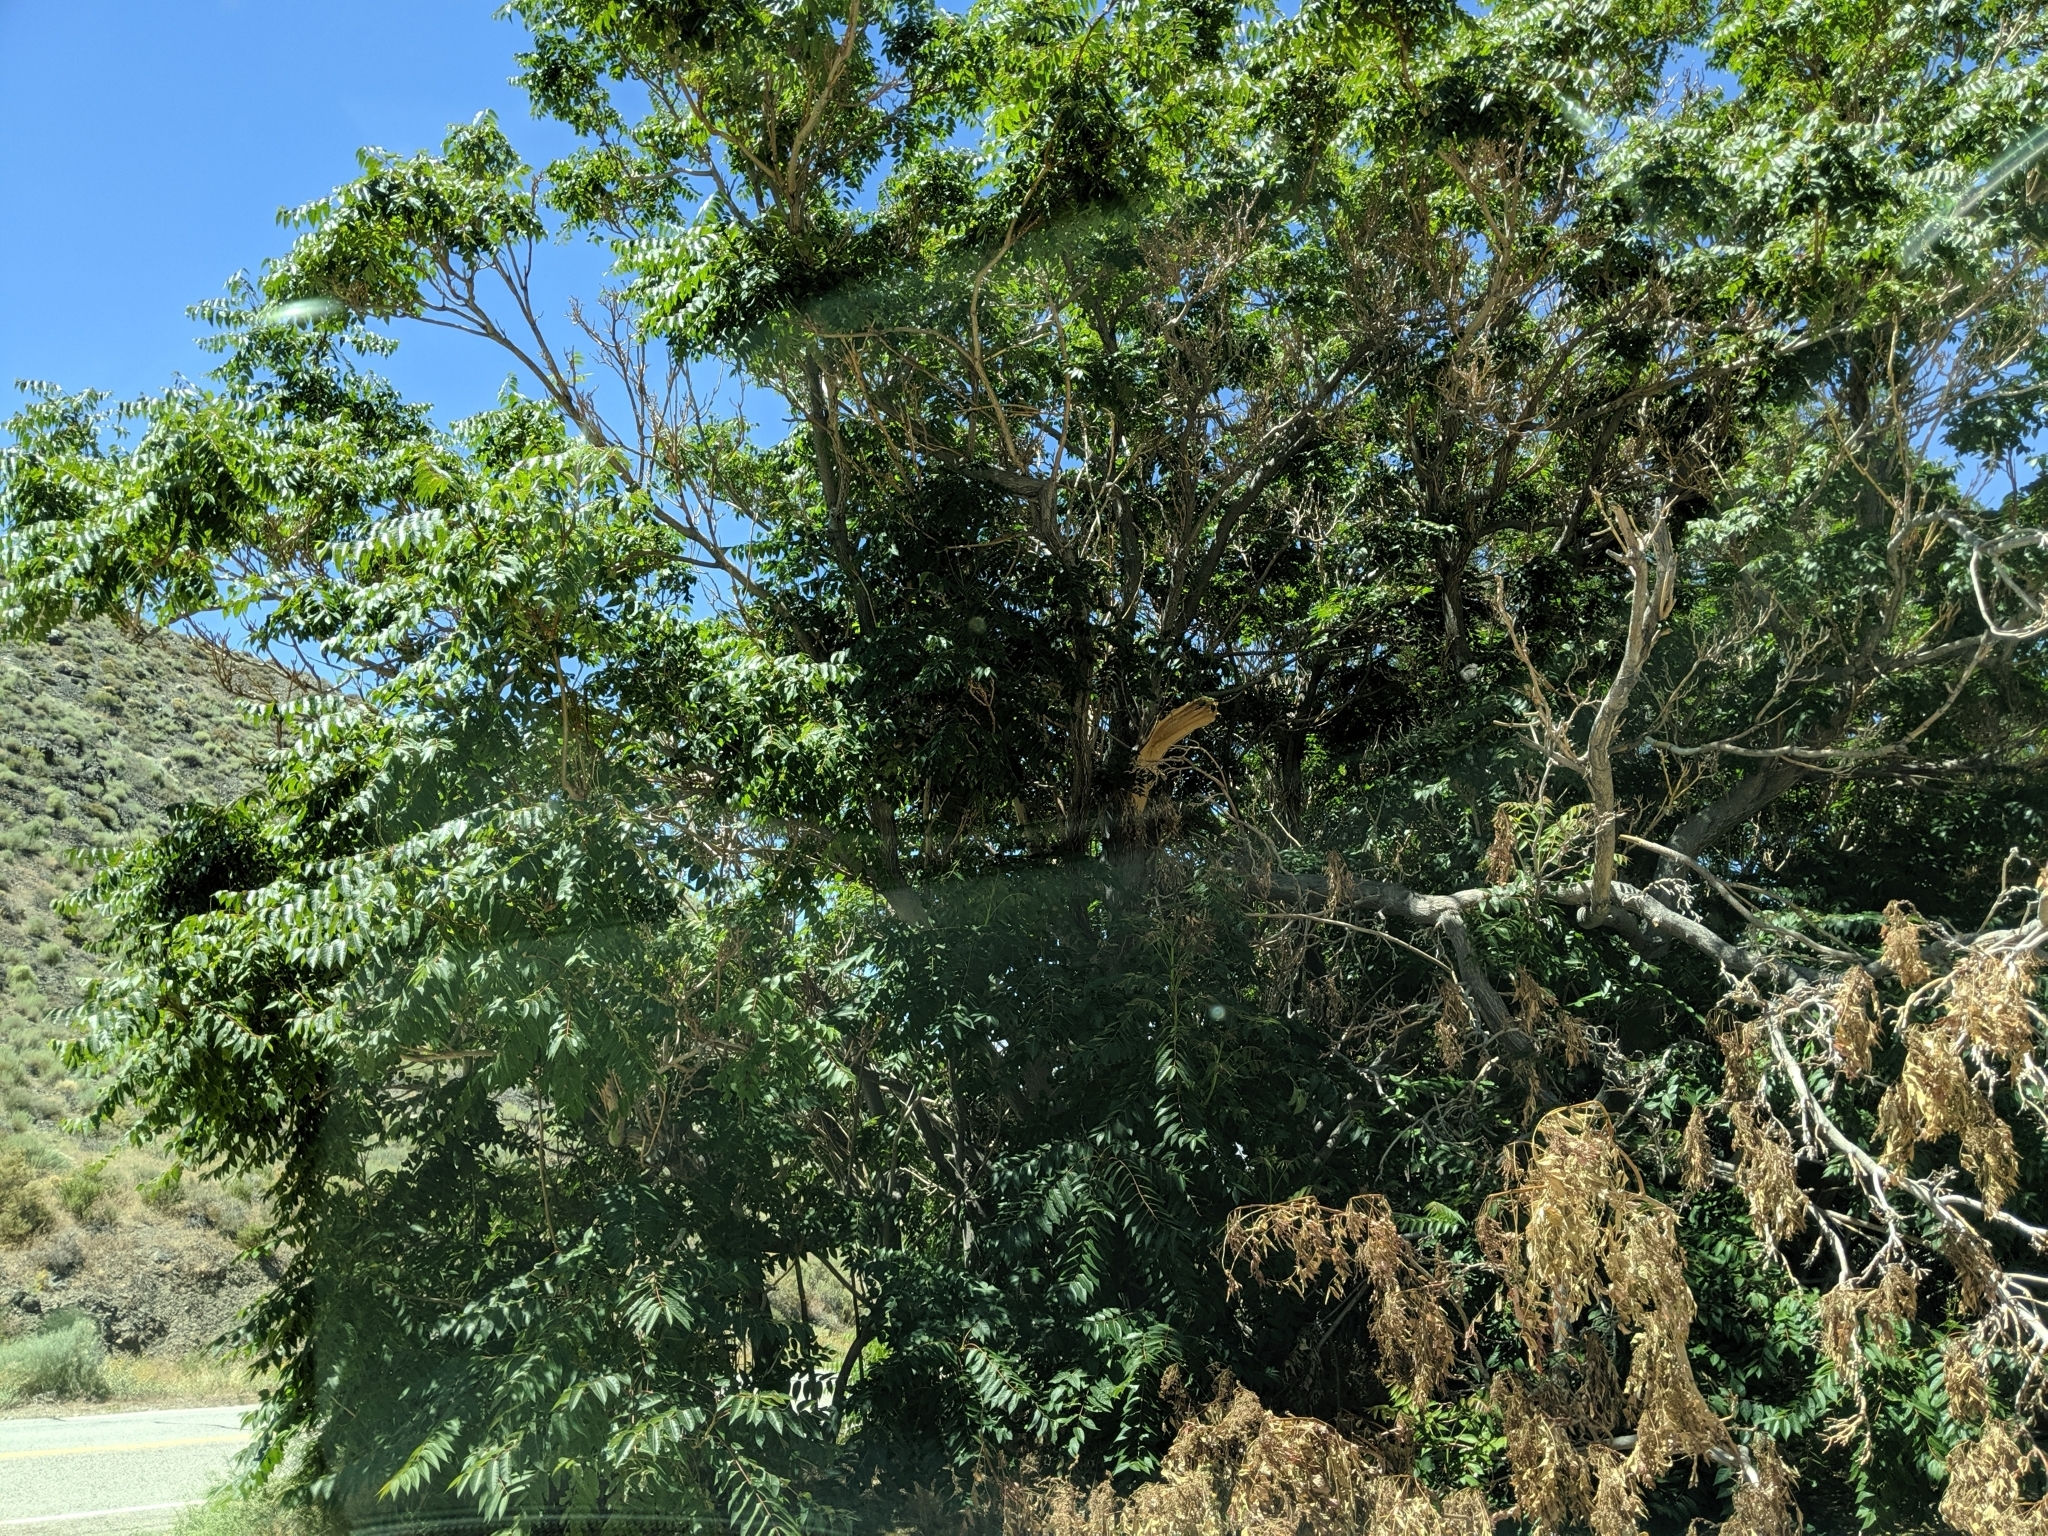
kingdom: Plantae
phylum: Tracheophyta
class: Magnoliopsida
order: Sapindales
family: Simaroubaceae
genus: Ailanthus
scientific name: Ailanthus altissima
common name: Tree-of-heaven
